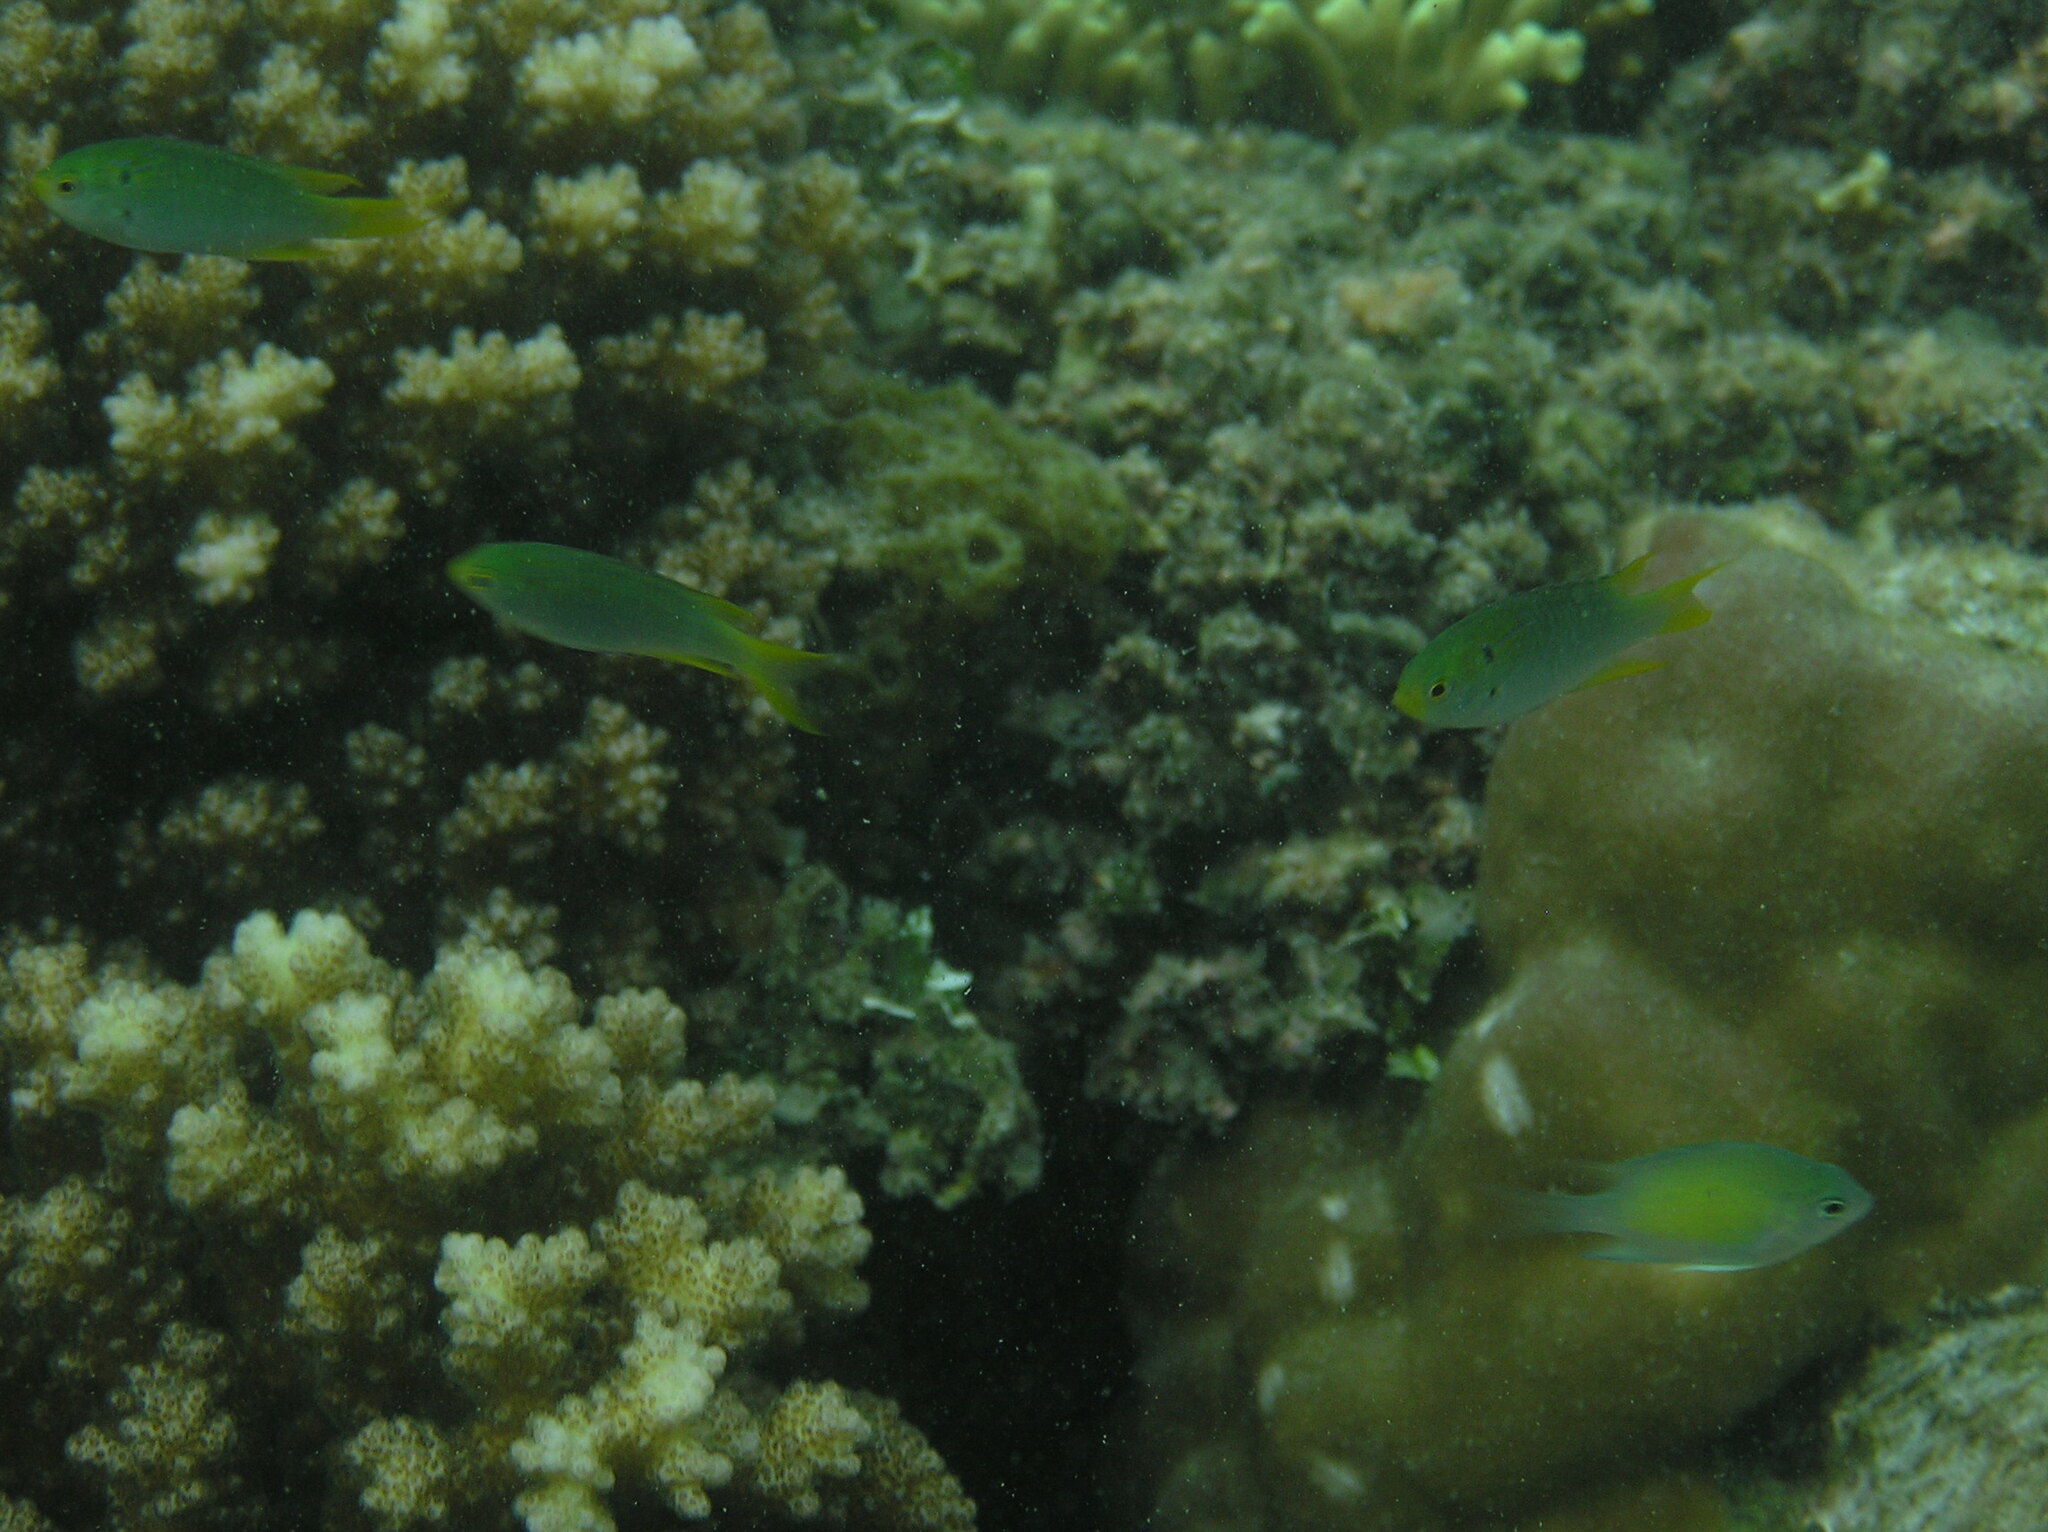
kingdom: Animalia
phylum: Chordata
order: Perciformes
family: Pomacentridae
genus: Neopomacentrus
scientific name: Neopomacentrus nemurus
